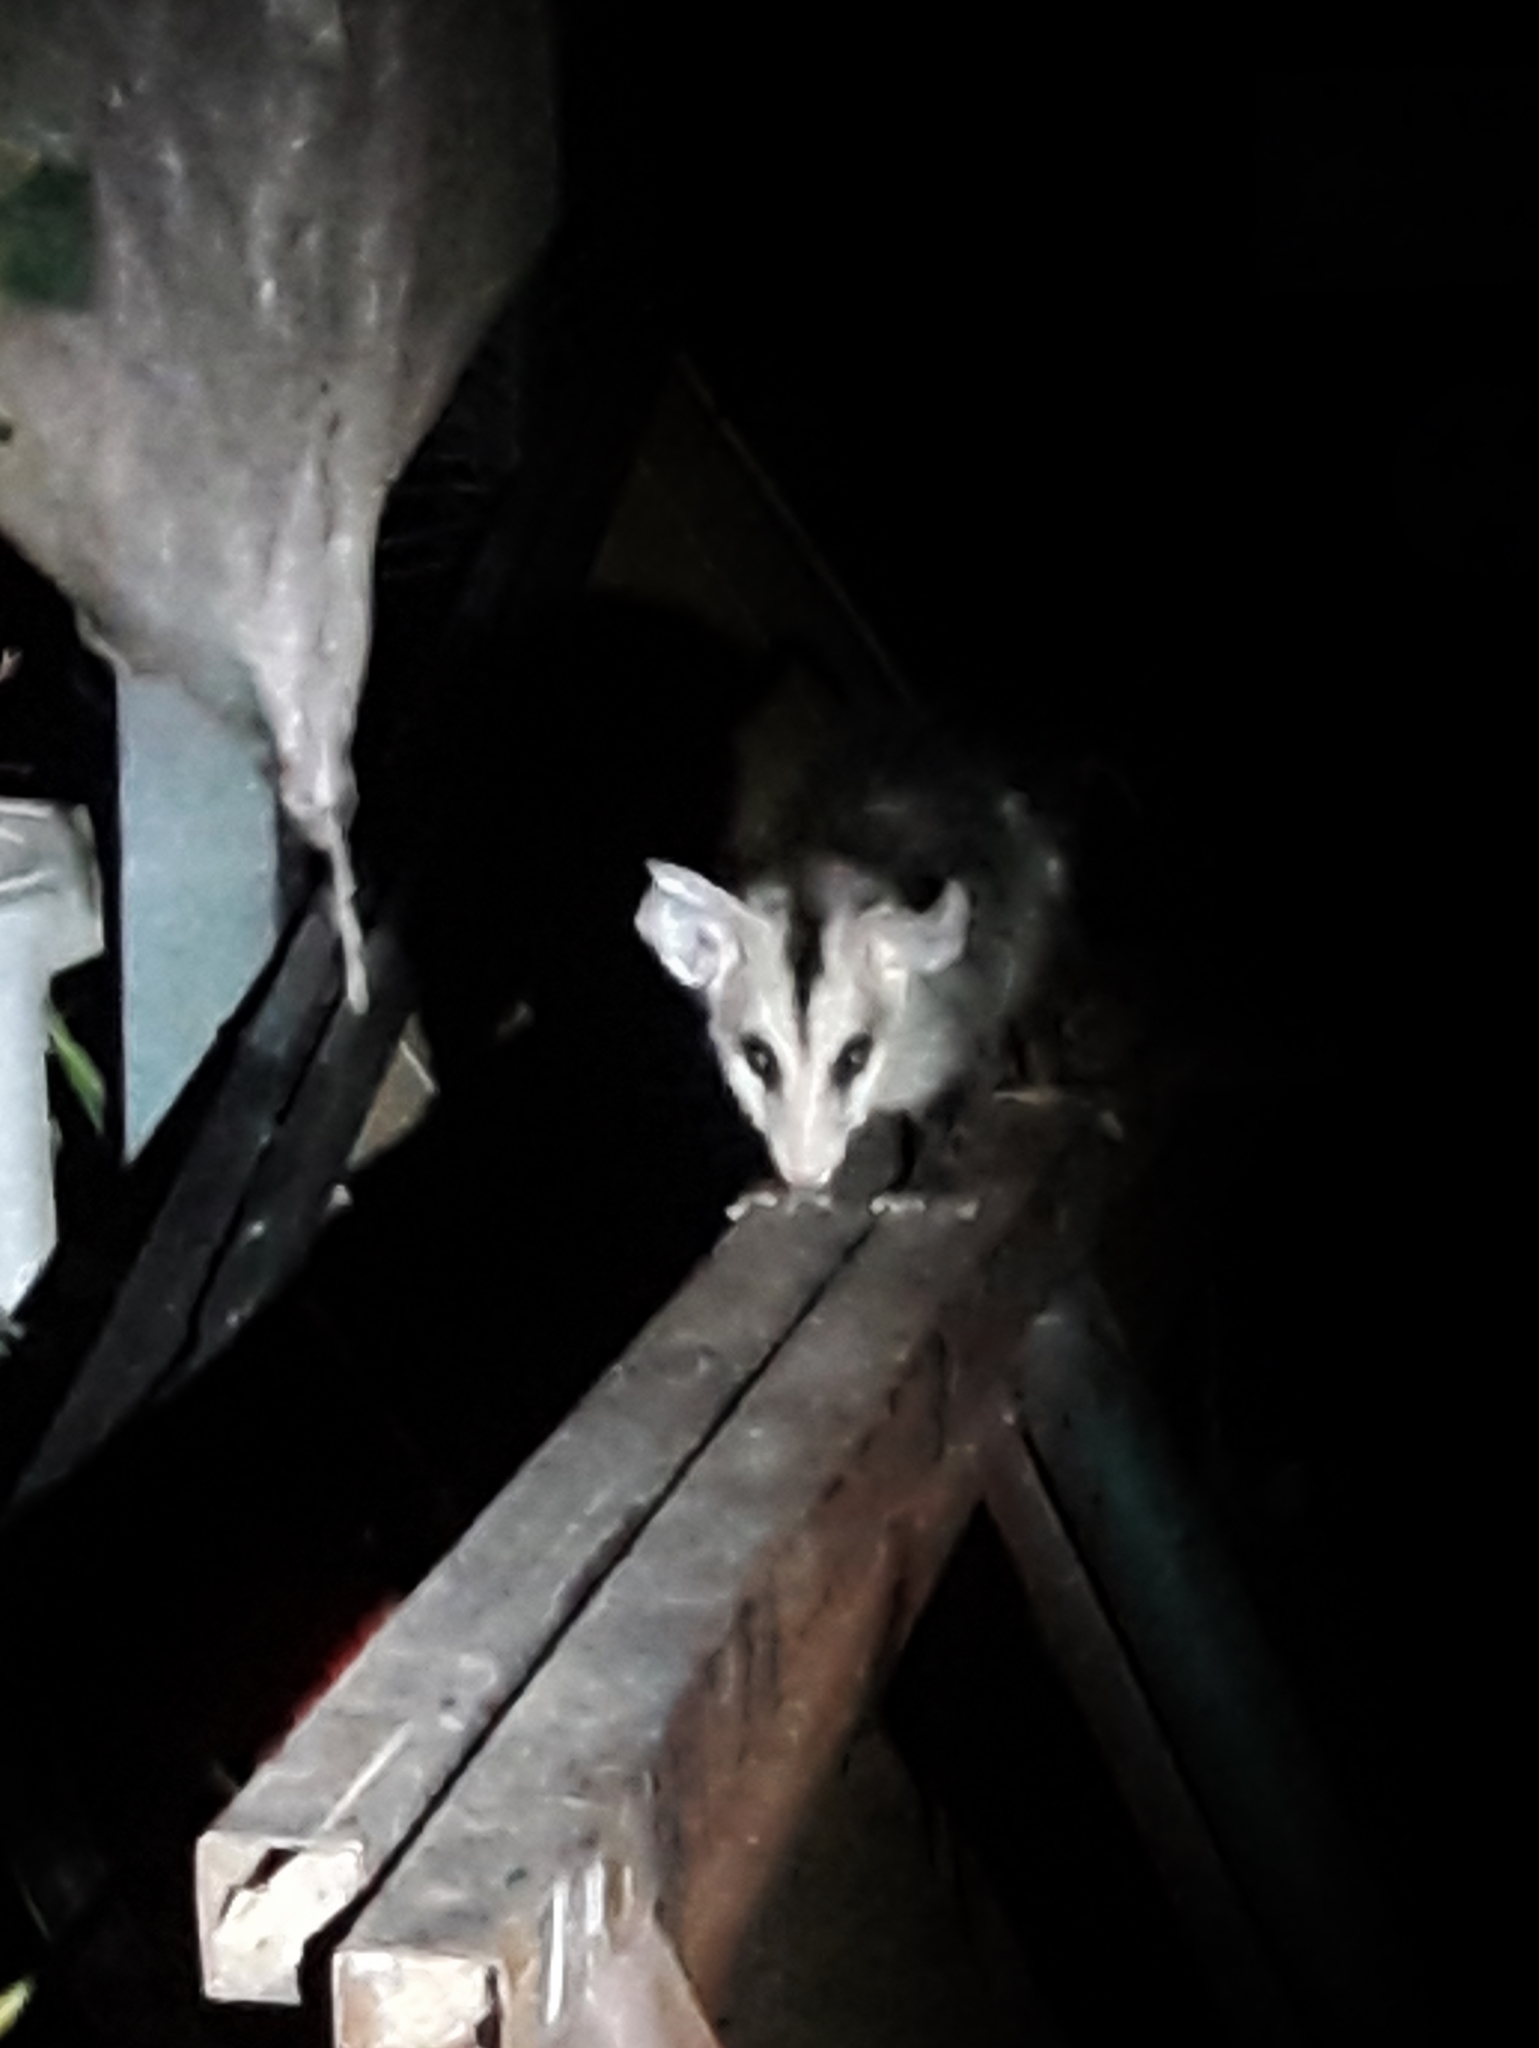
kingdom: Animalia
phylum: Chordata
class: Mammalia
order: Didelphimorphia
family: Didelphidae
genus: Didelphis
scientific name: Didelphis albiventris
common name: White-eared opossum
